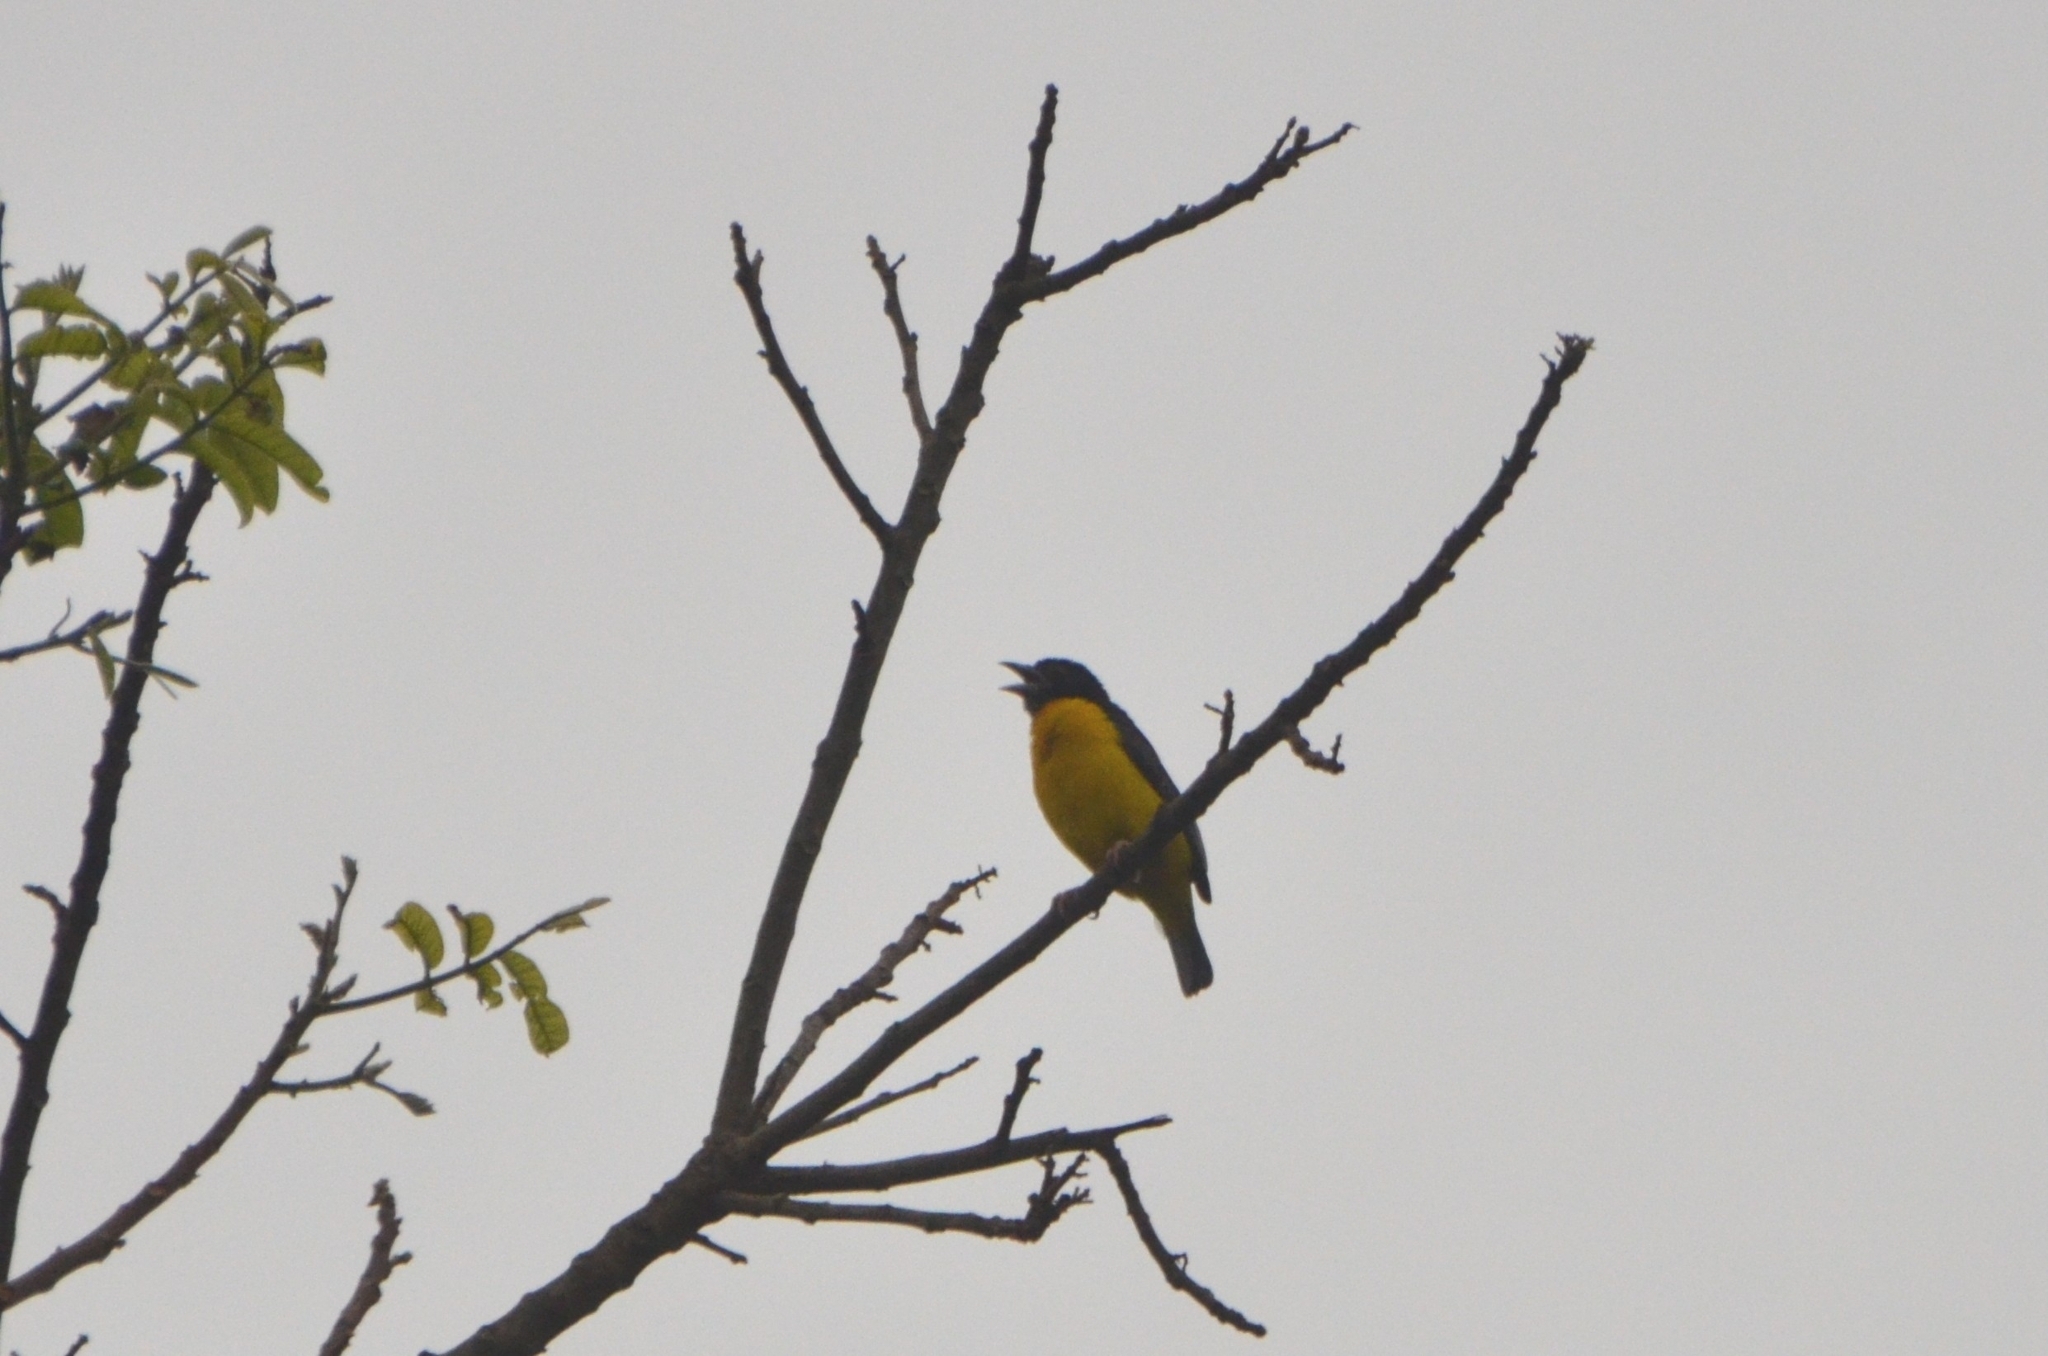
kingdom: Animalia
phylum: Chordata
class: Aves
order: Passeriformes
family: Ploceidae
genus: Ploceus
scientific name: Ploceus bicolor
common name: Dark-backed weaver
